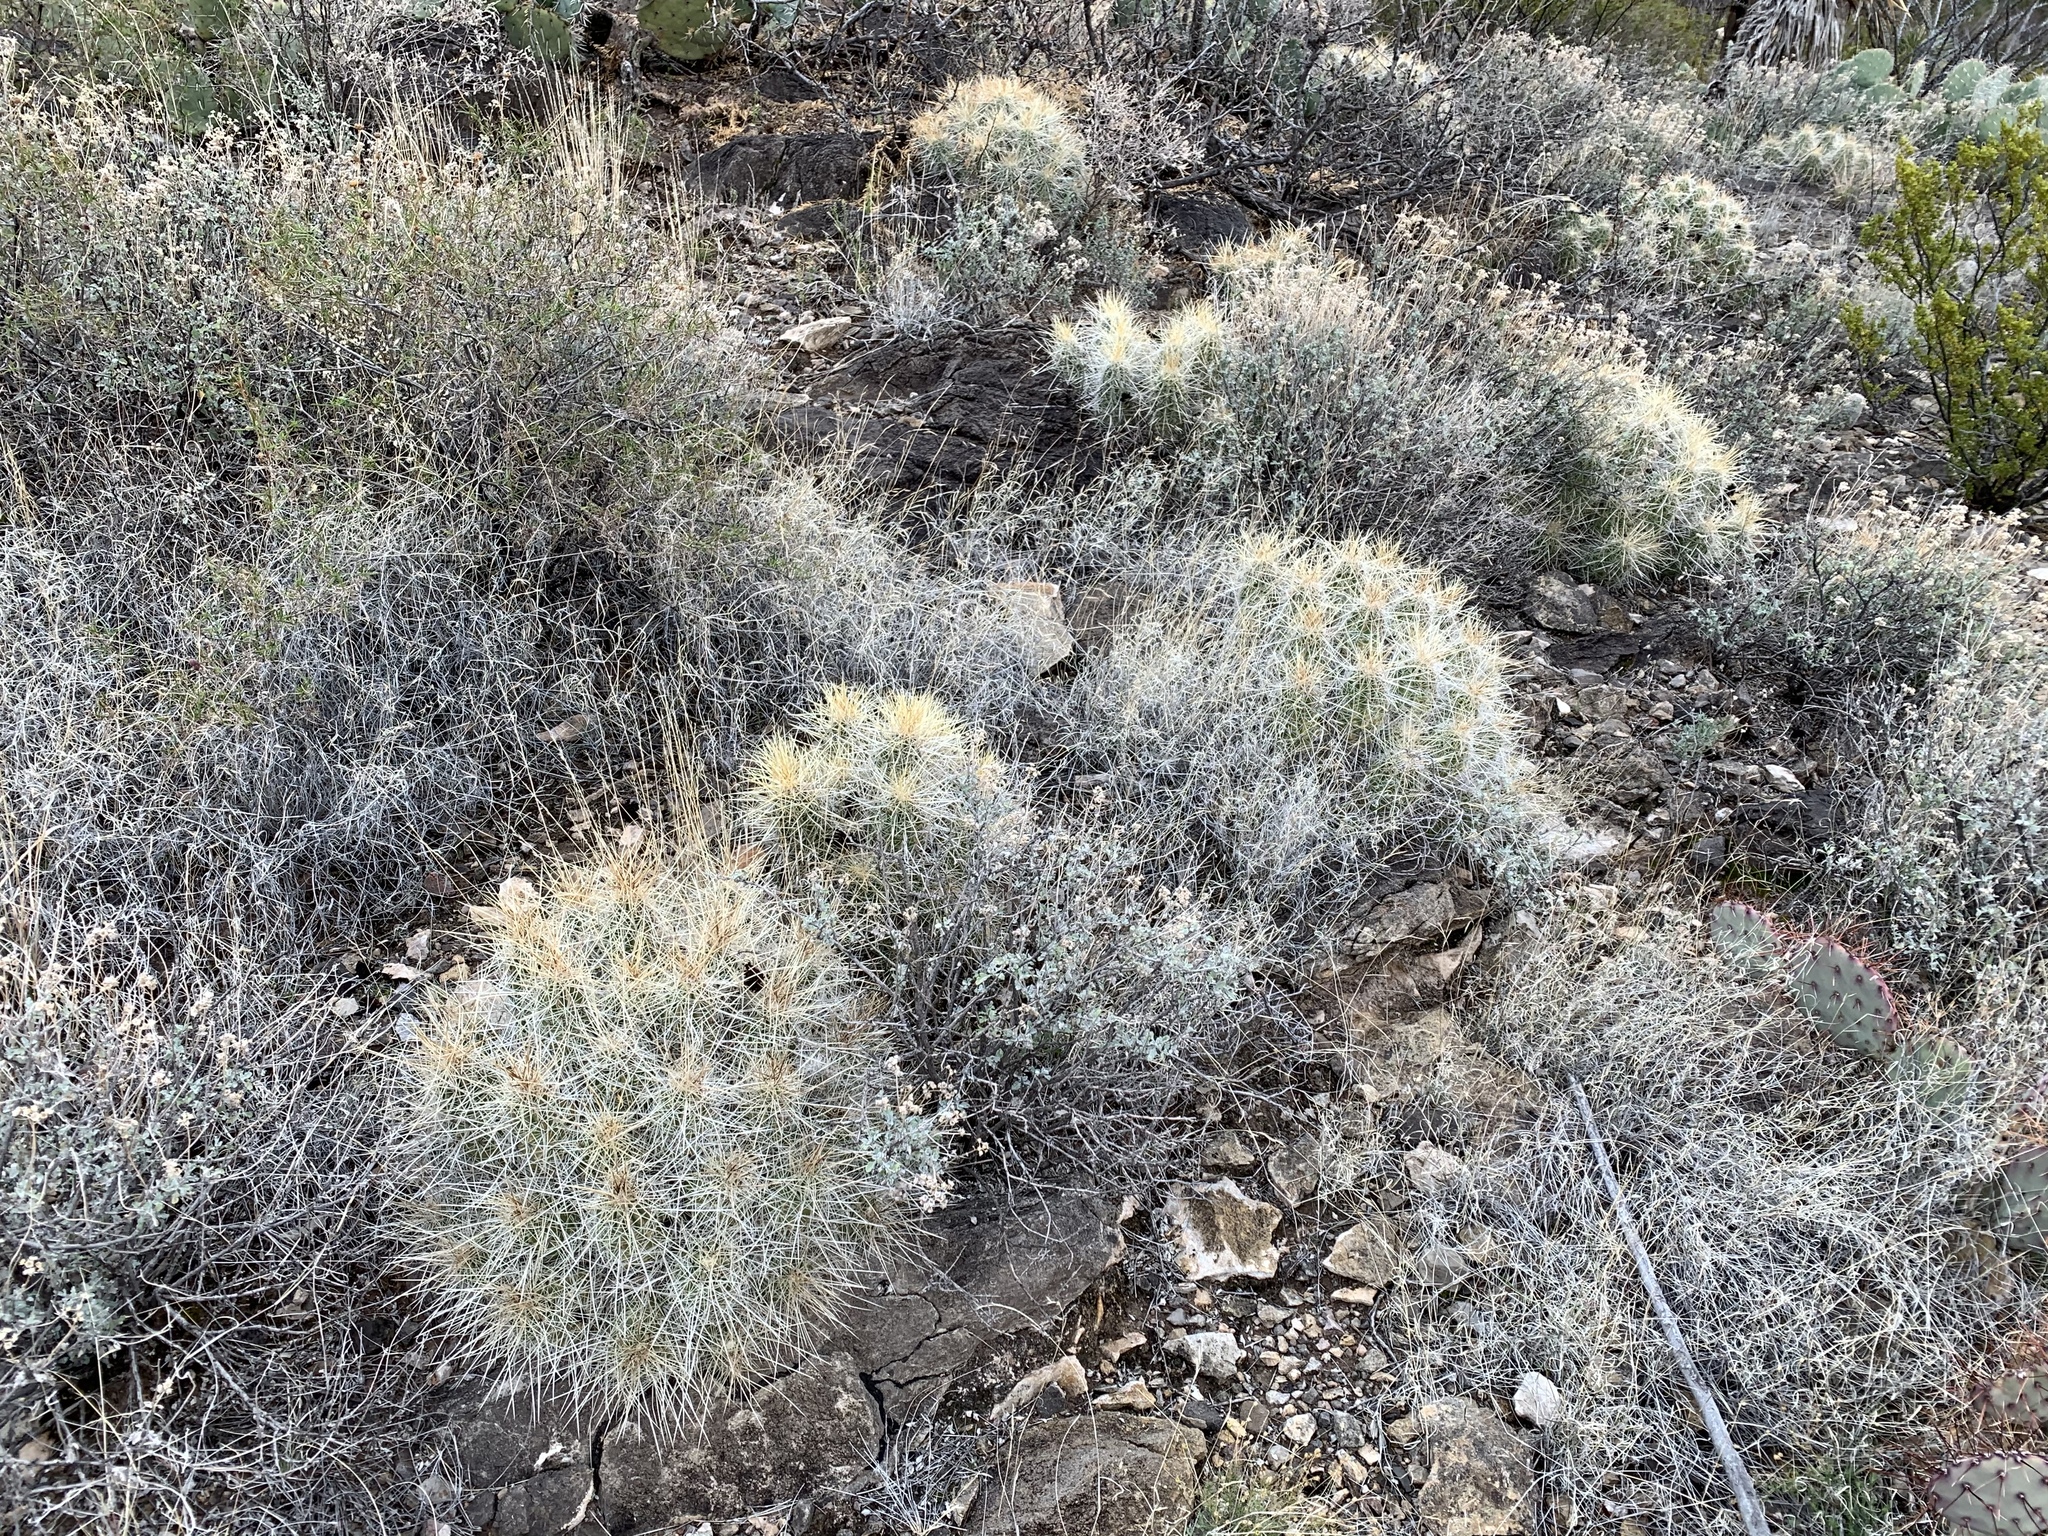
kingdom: Plantae
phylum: Tracheophyta
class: Magnoliopsida
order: Caryophyllales
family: Cactaceae
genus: Echinocereus
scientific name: Echinocereus stramineus
